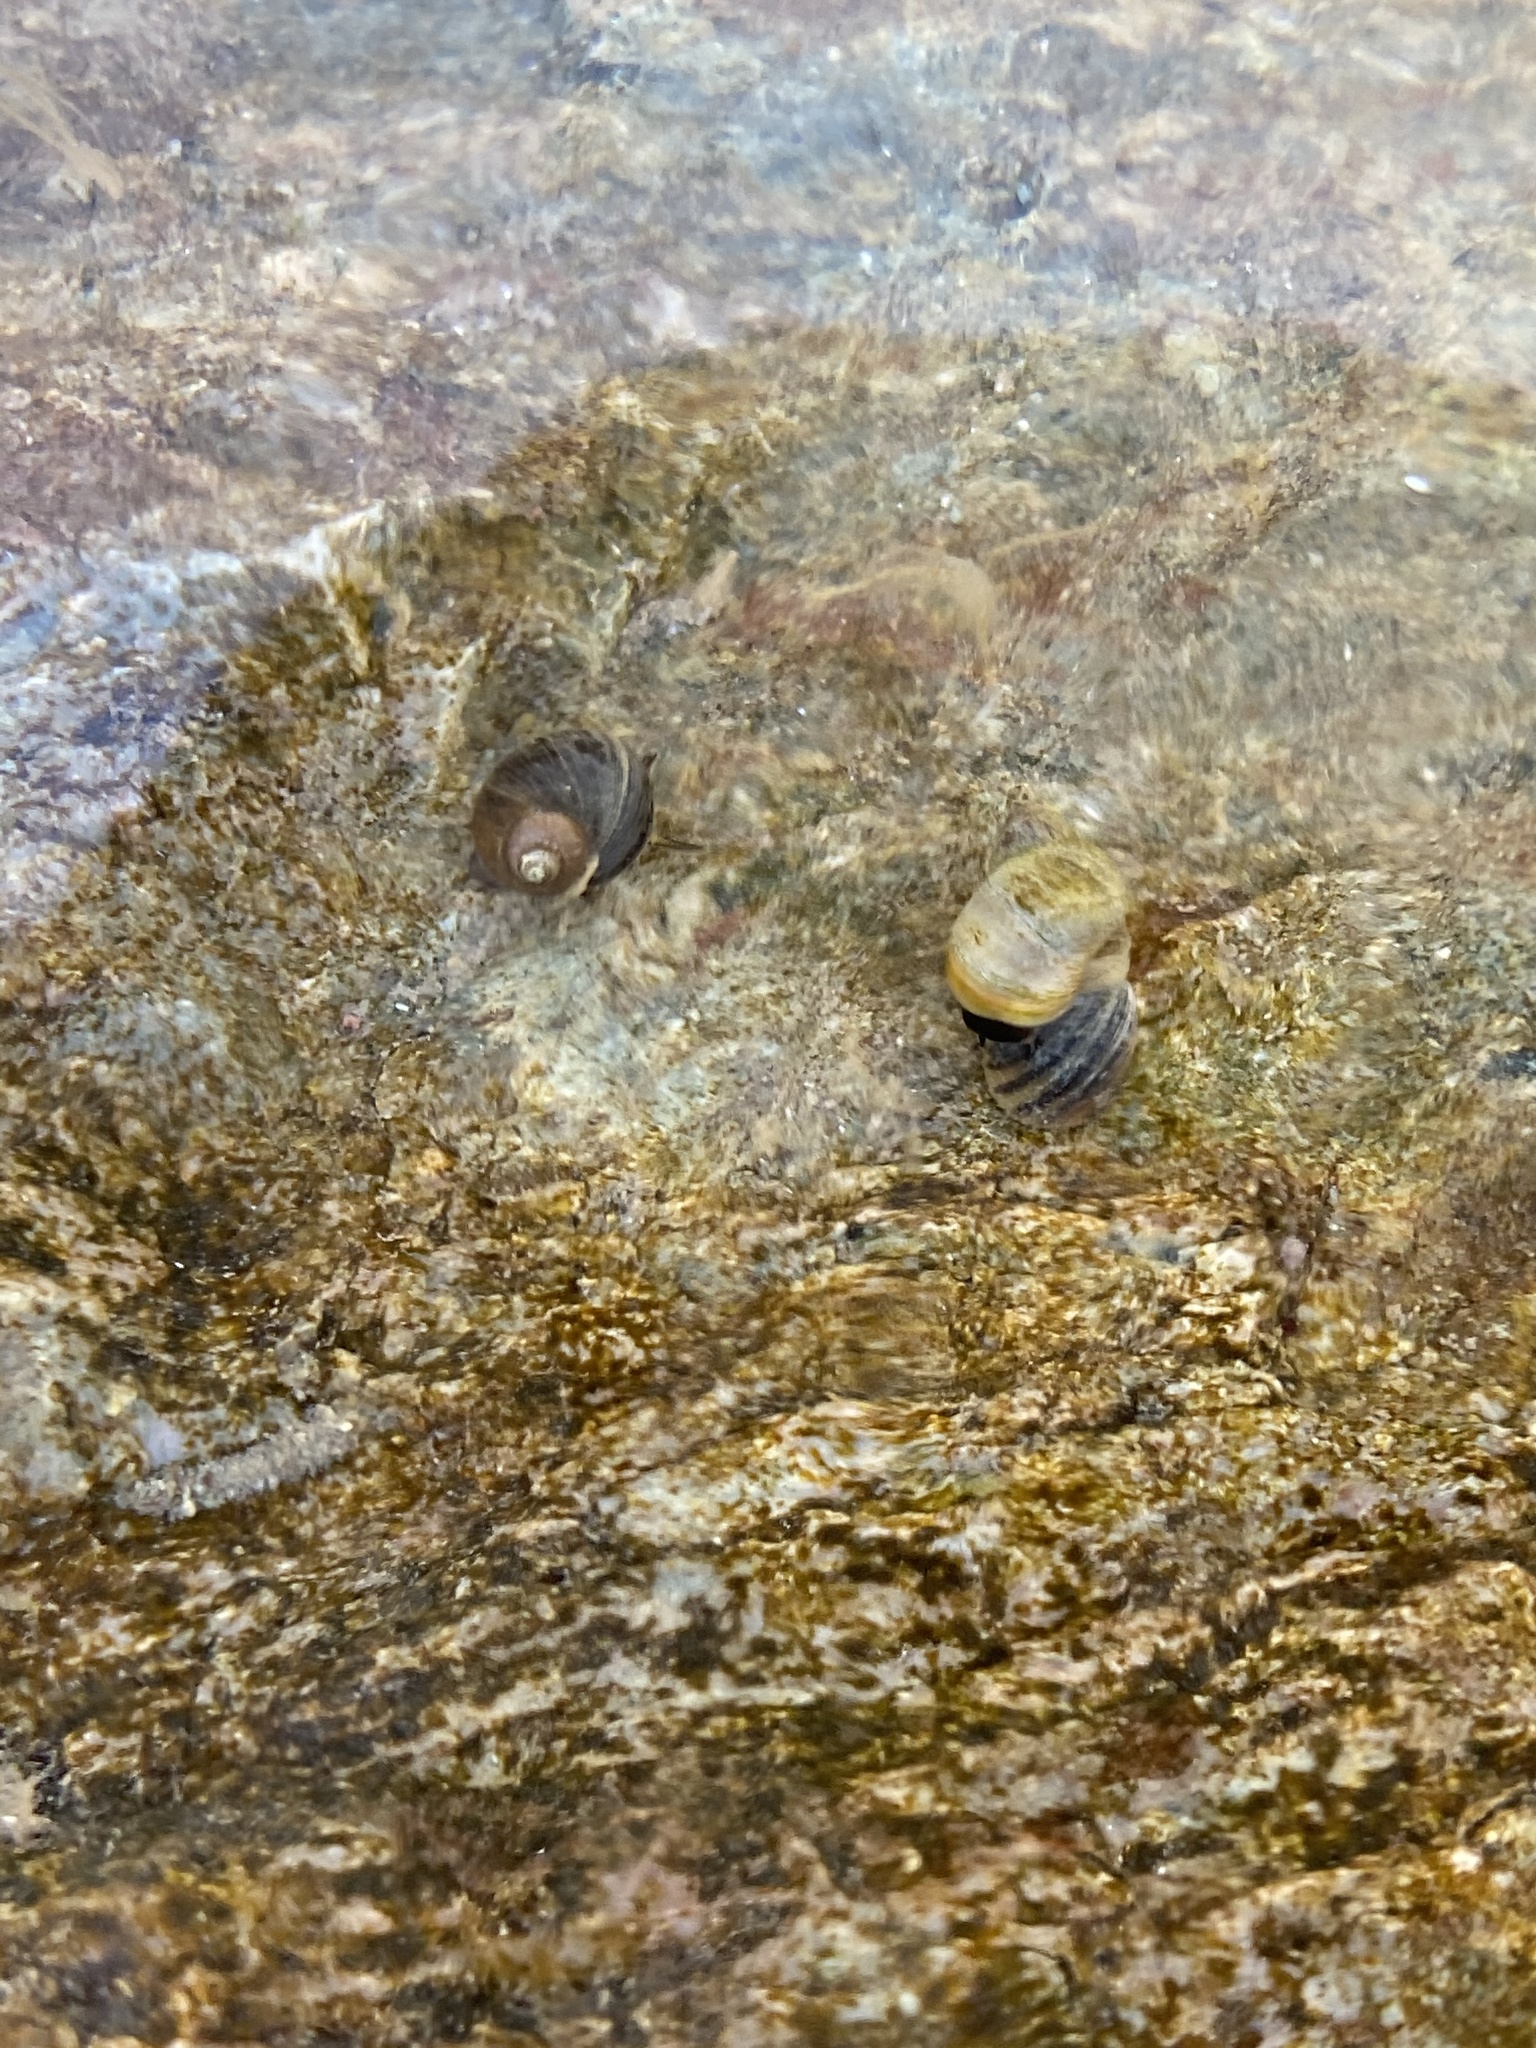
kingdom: Animalia
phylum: Mollusca
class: Gastropoda
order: Littorinimorpha
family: Littorinidae
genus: Littorina
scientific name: Littorina littorea
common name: Common periwinkle
